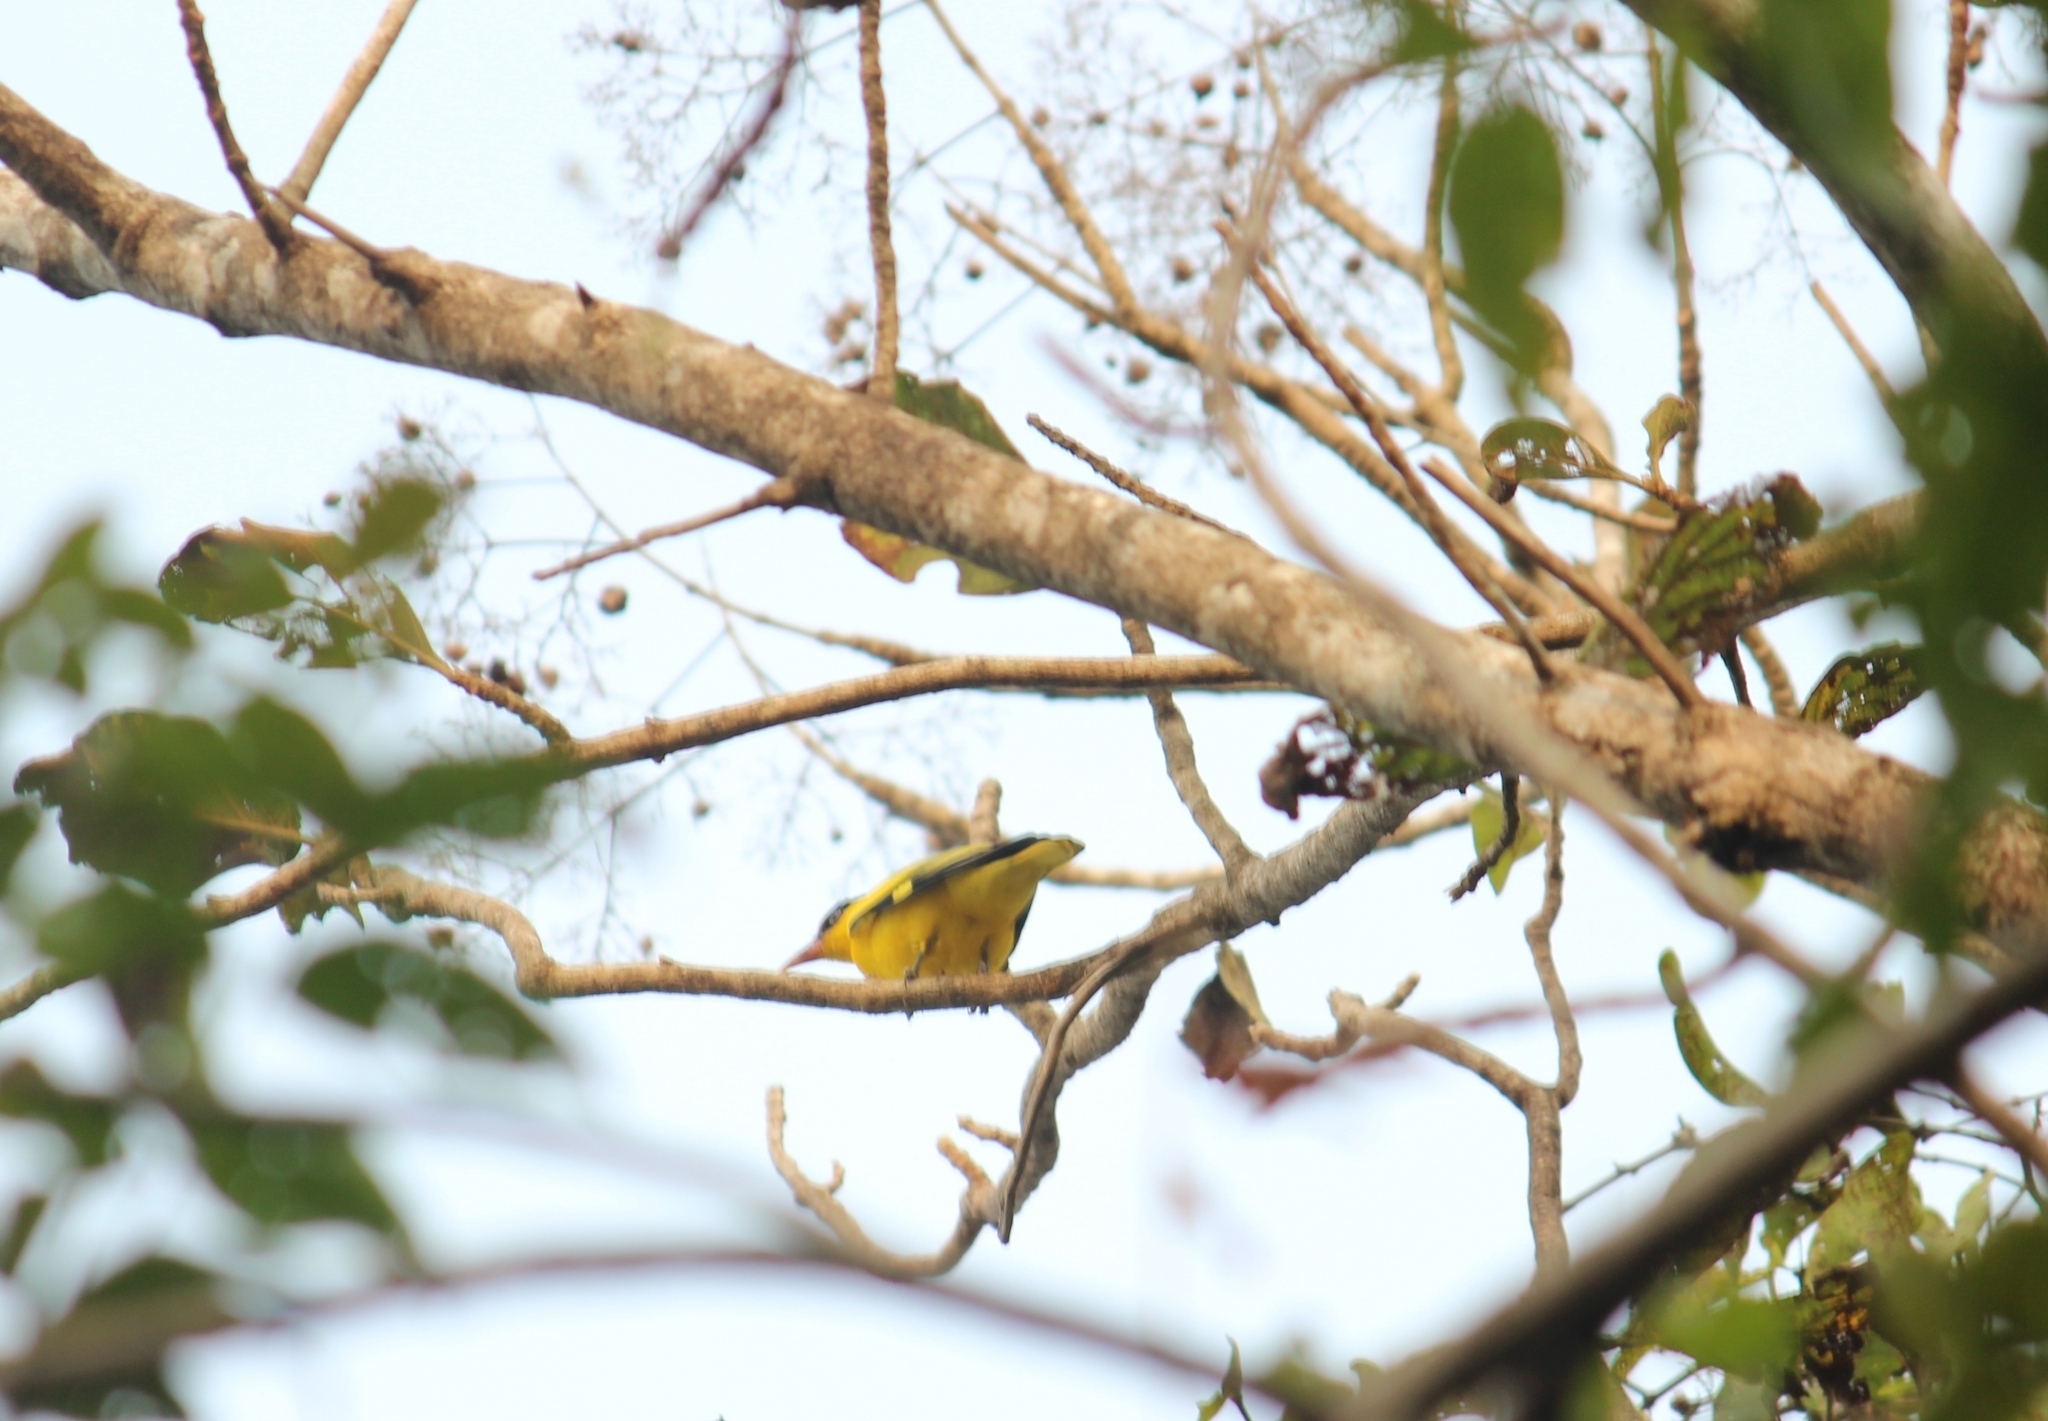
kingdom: Animalia
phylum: Chordata
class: Aves
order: Passeriformes
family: Oriolidae
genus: Oriolus
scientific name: Oriolus kundoo
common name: Indian golden oriole
